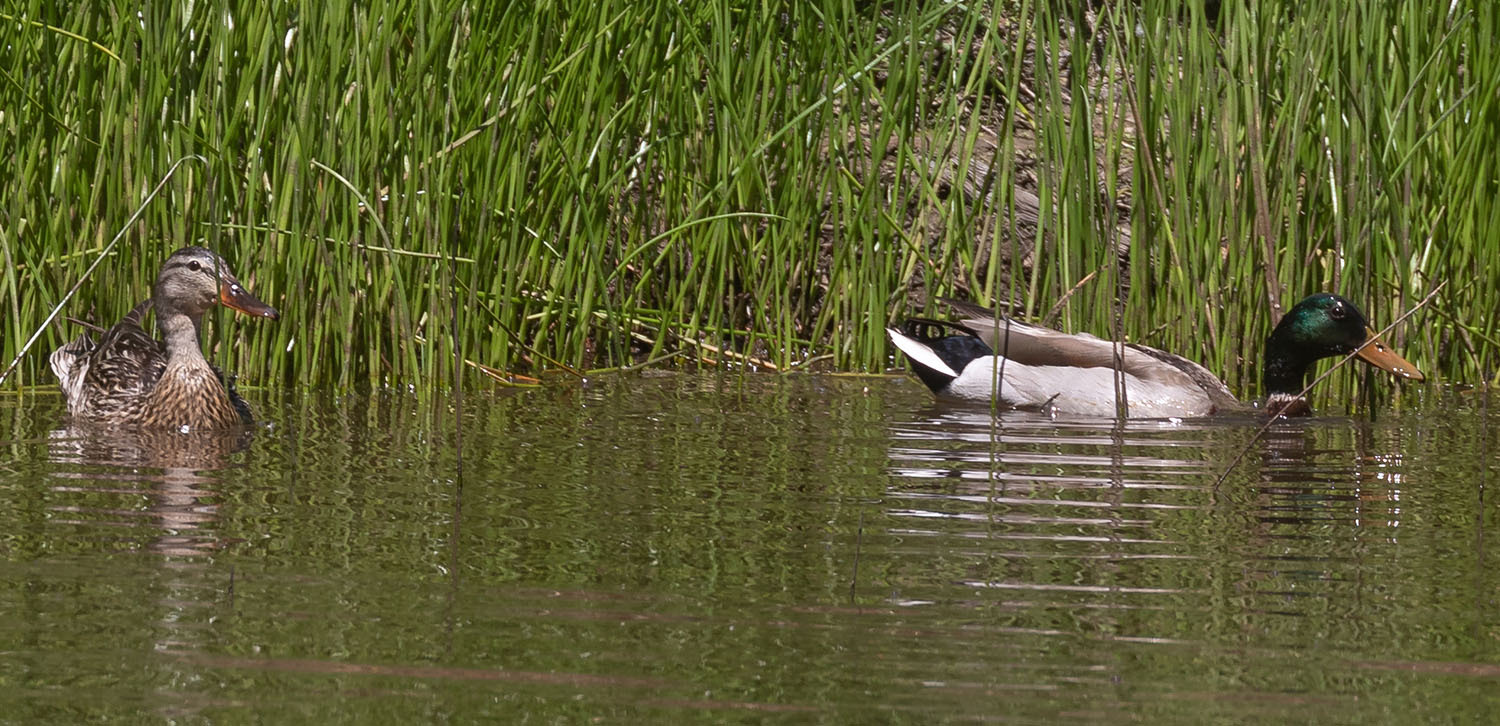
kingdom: Animalia
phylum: Chordata
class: Aves
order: Anseriformes
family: Anatidae
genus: Anas
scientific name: Anas platyrhynchos
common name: Mallard
